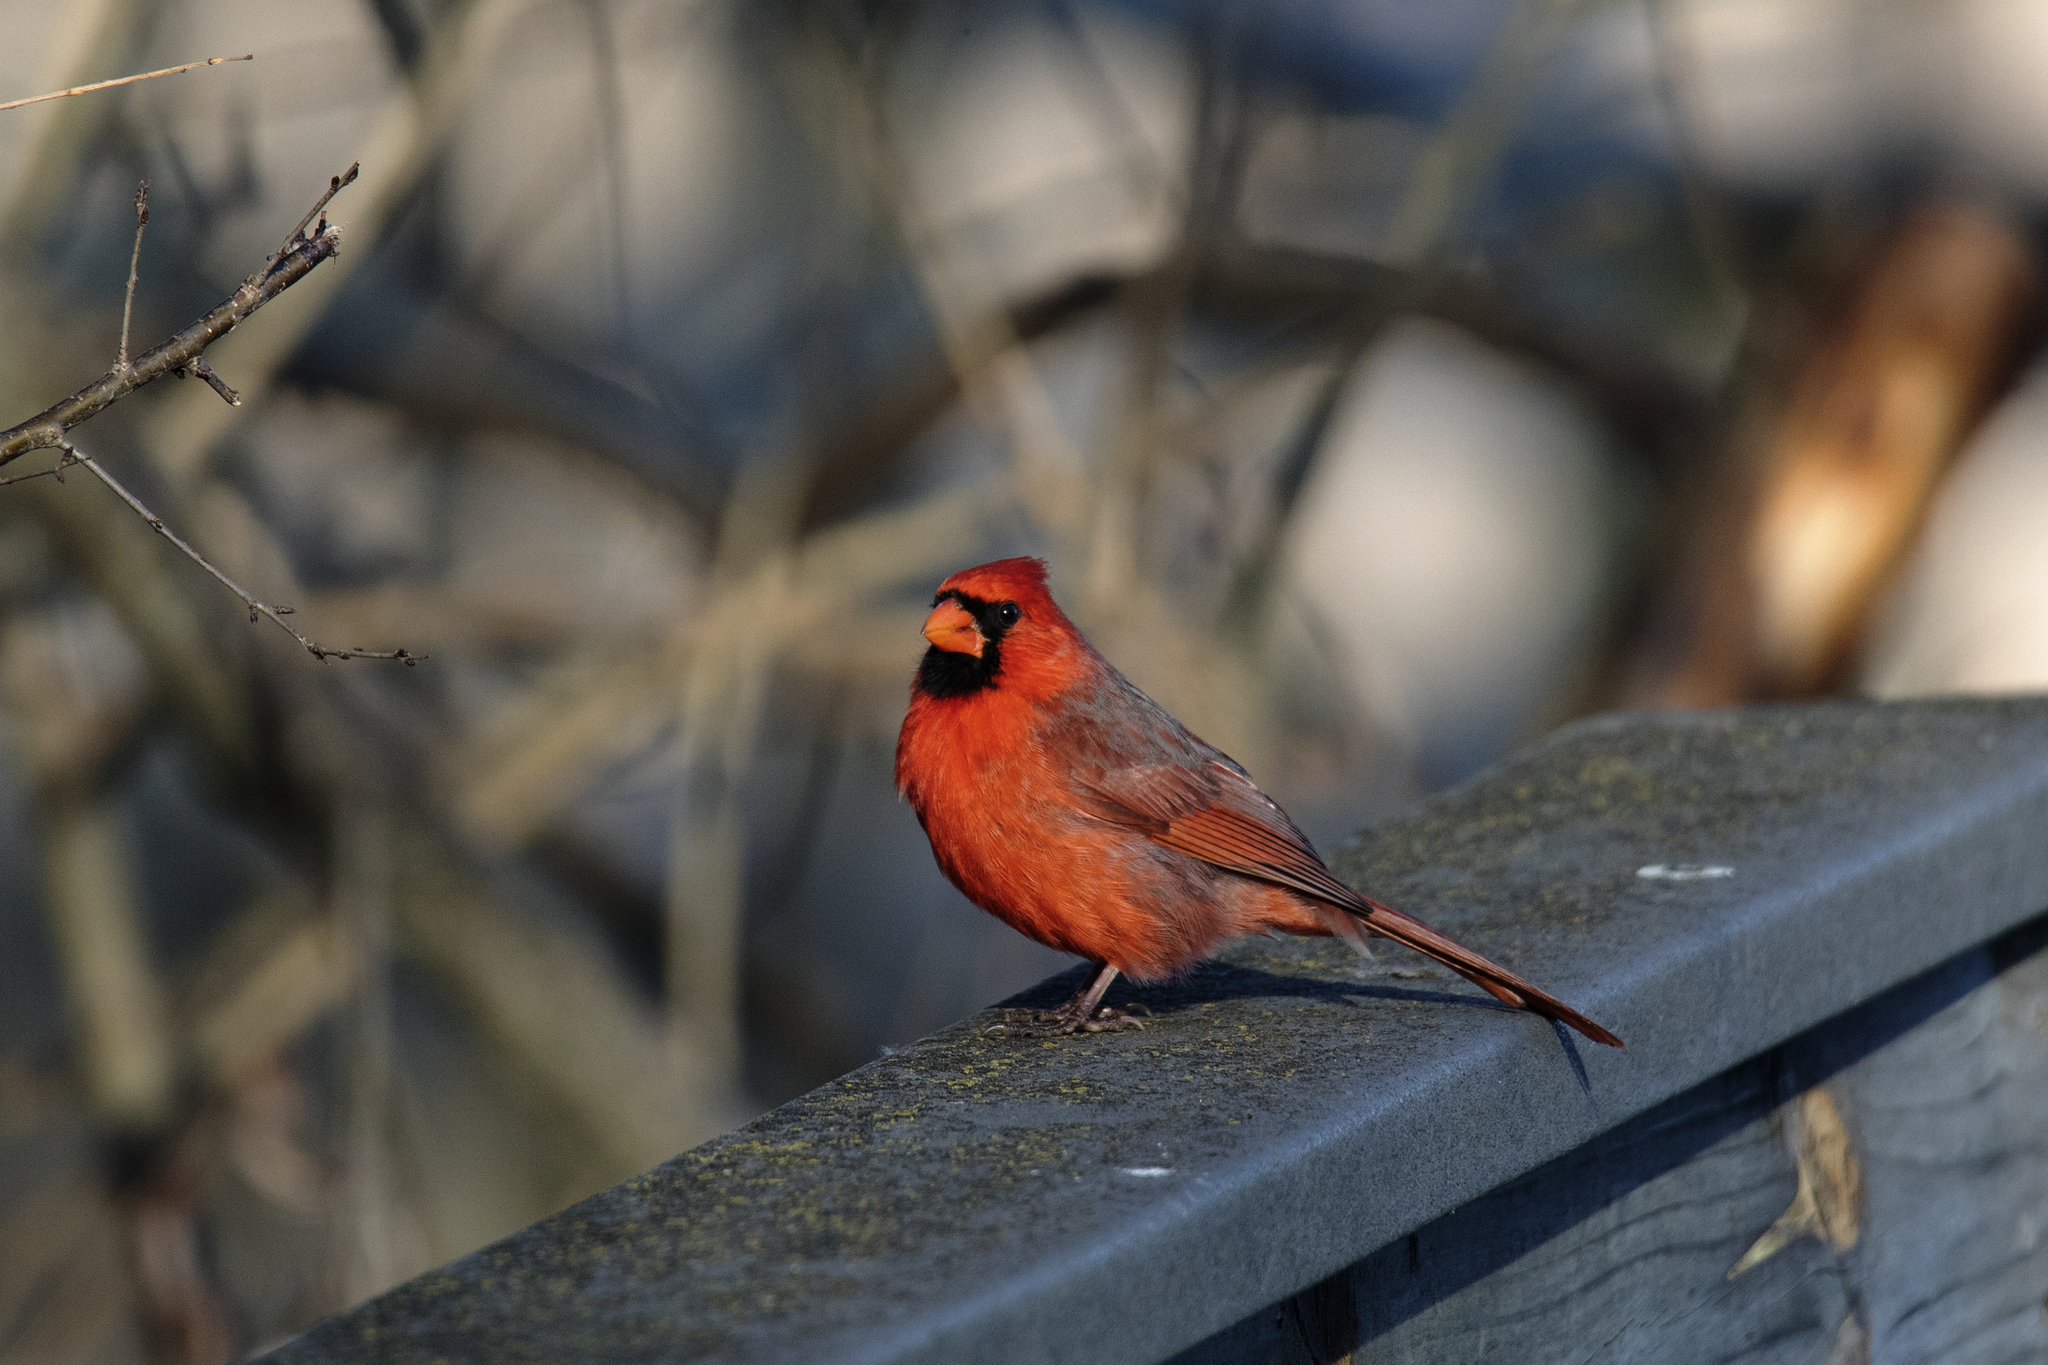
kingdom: Animalia
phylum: Chordata
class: Aves
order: Passeriformes
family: Cardinalidae
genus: Cardinalis
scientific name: Cardinalis cardinalis
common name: Northern cardinal
